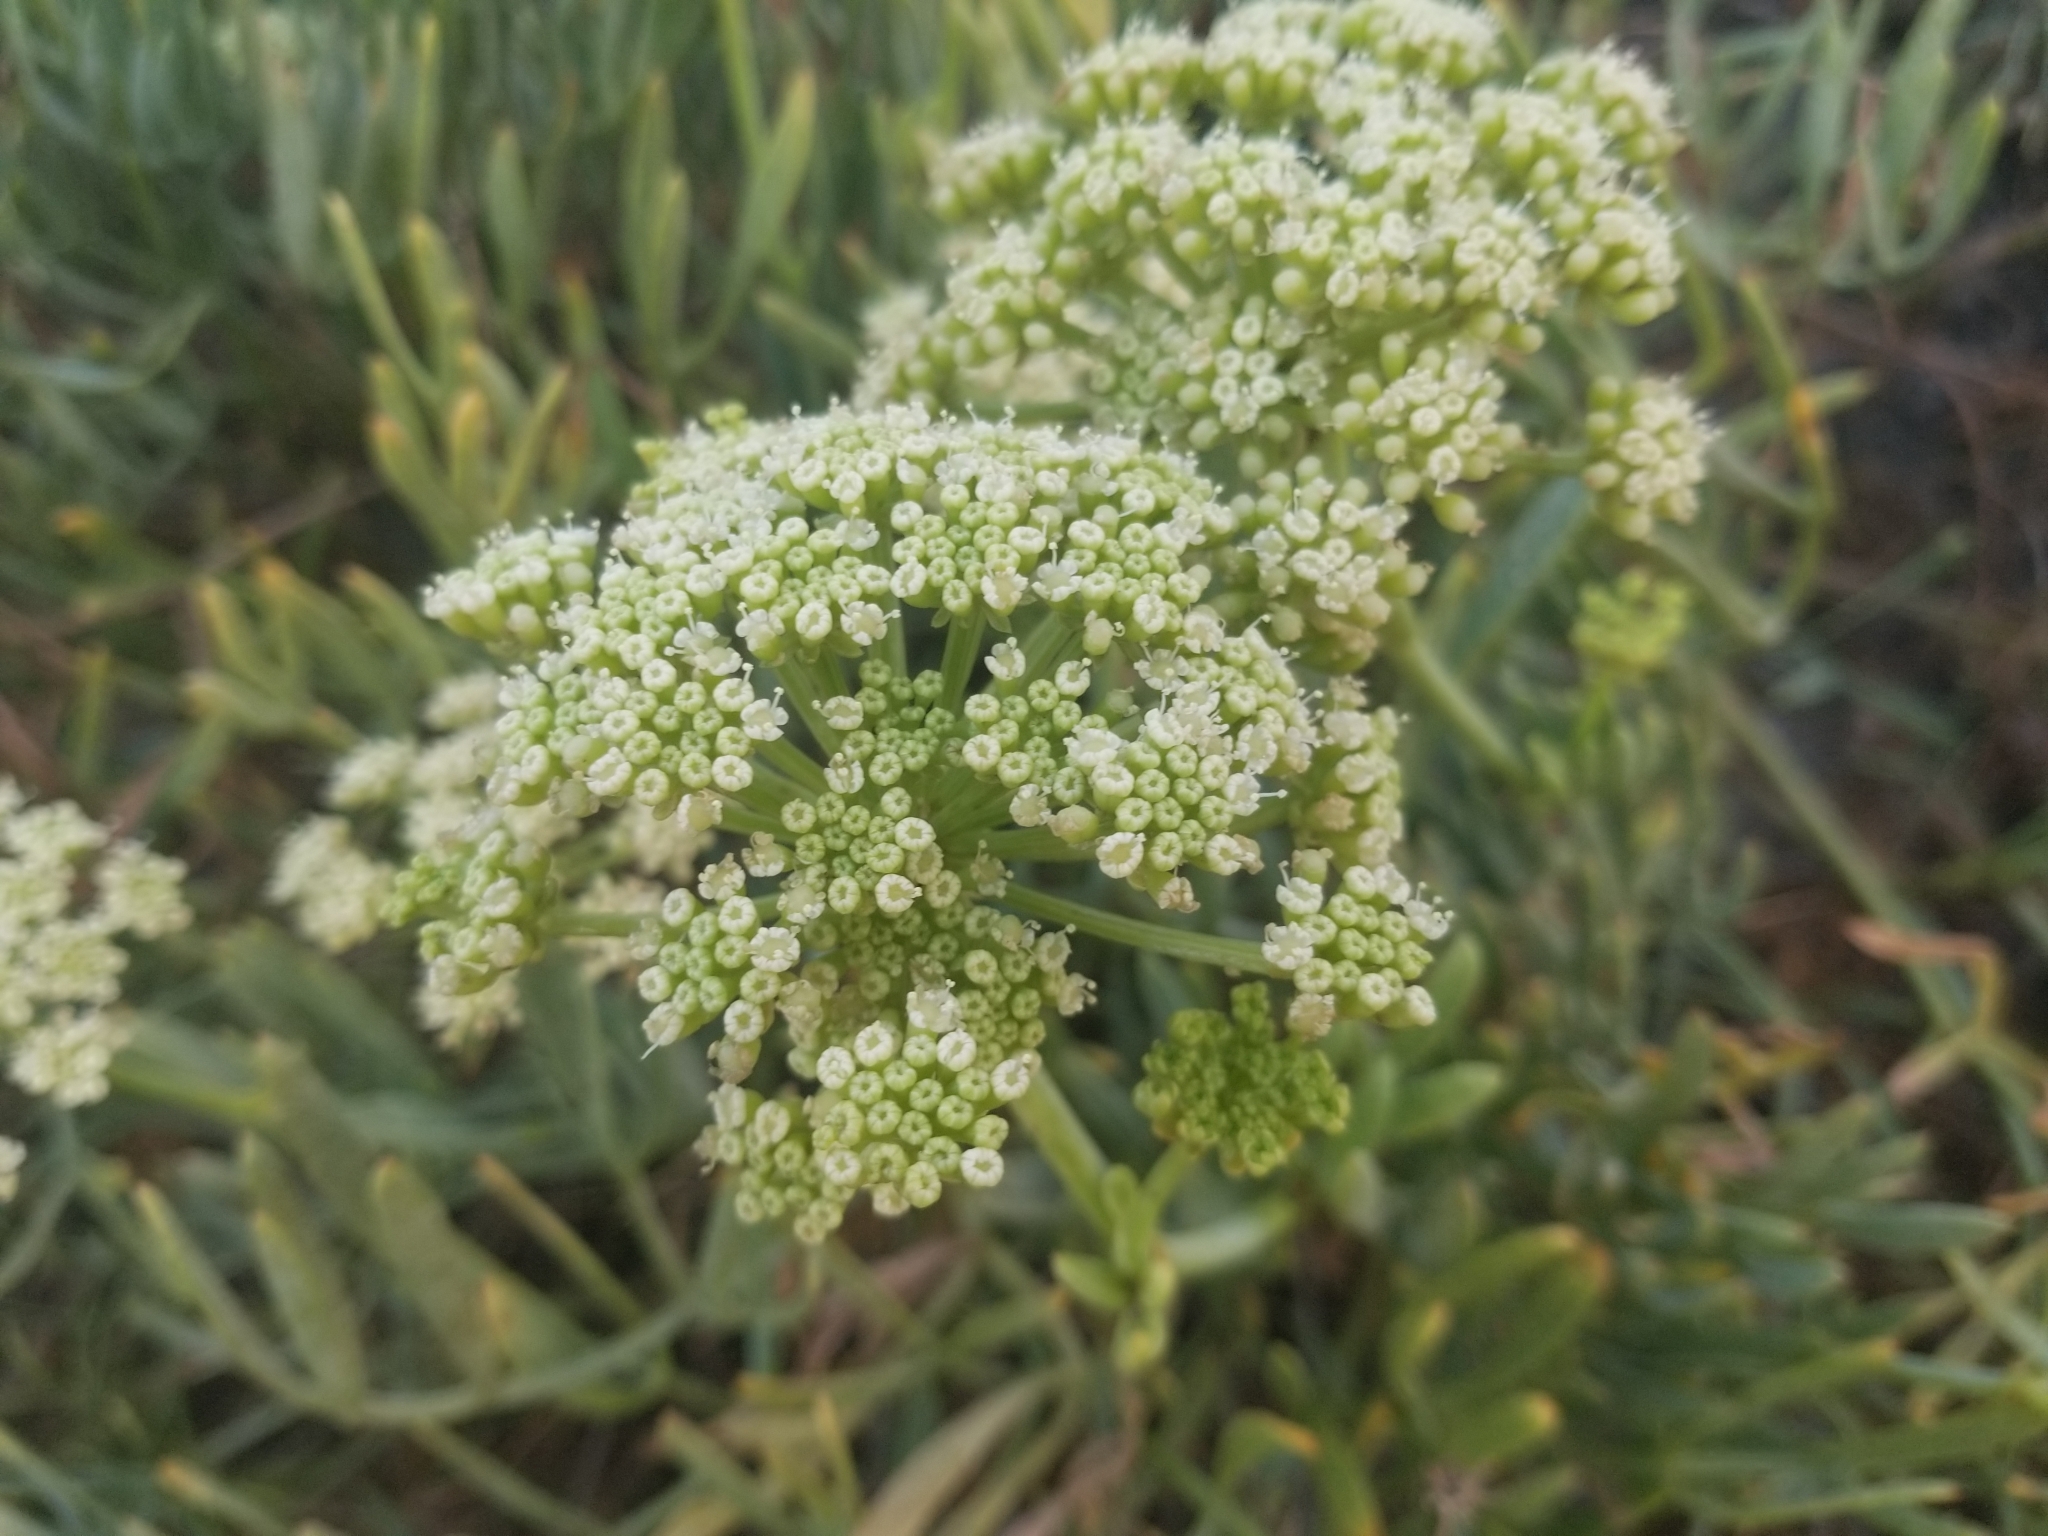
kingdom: Plantae
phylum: Tracheophyta
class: Magnoliopsida
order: Apiales
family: Apiaceae
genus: Crithmum
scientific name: Crithmum maritimum
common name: Rock samphire
